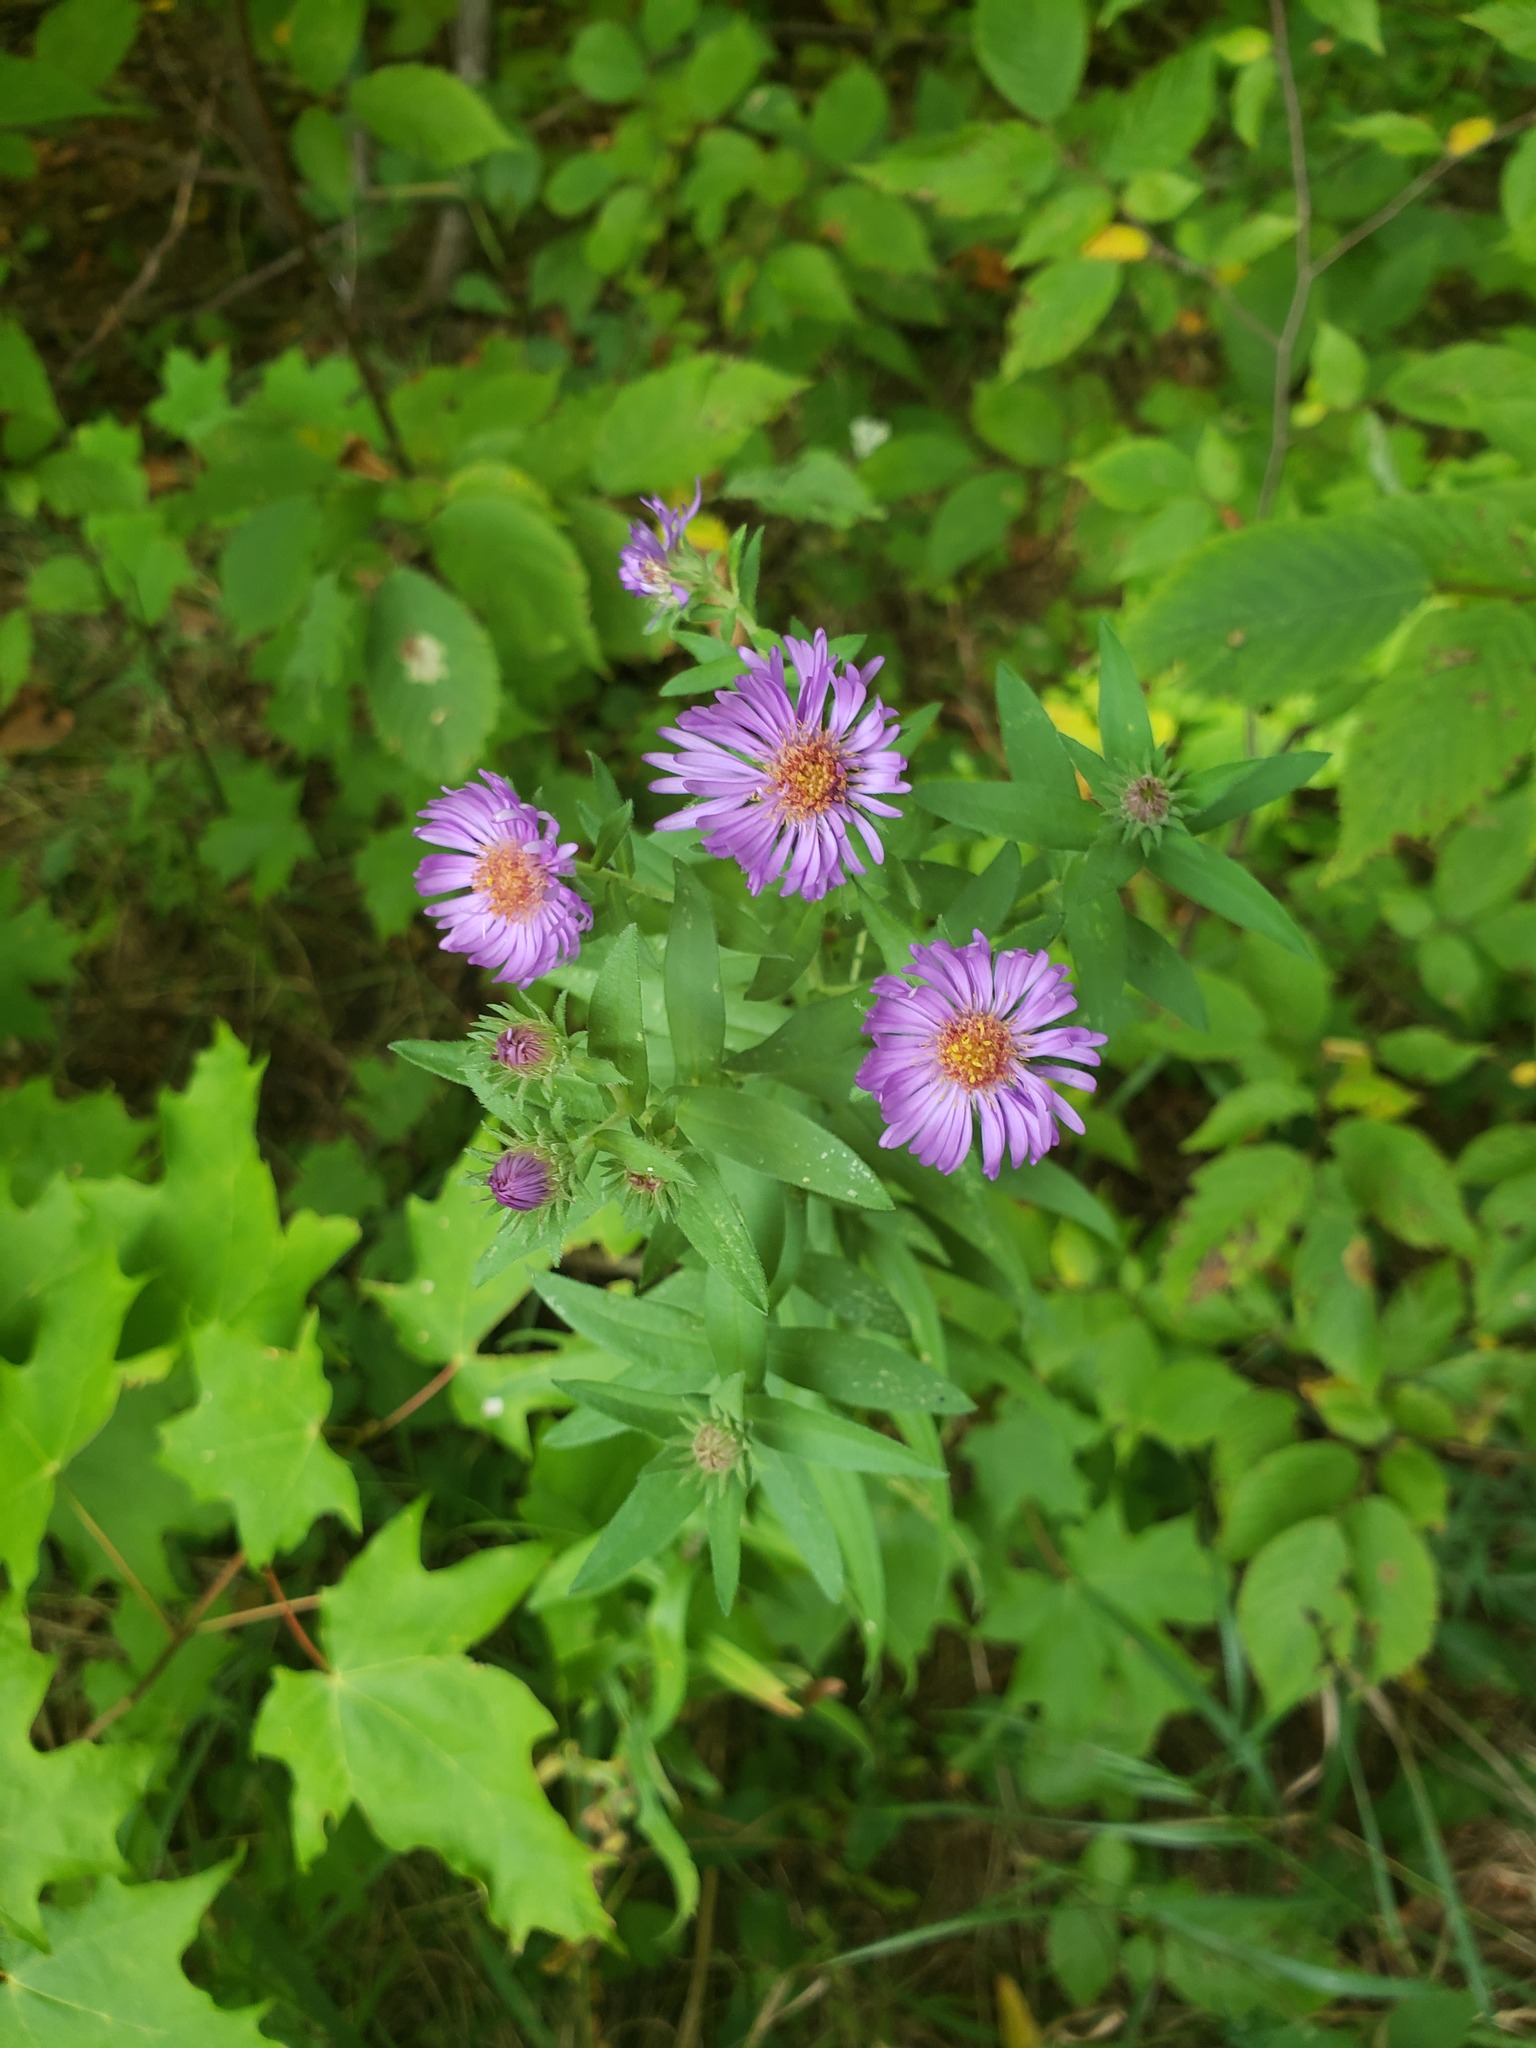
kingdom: Plantae
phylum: Tracheophyta
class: Magnoliopsida
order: Asterales
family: Asteraceae
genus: Symphyotrichum
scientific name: Symphyotrichum novae-angliae
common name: Michaelmas daisy
